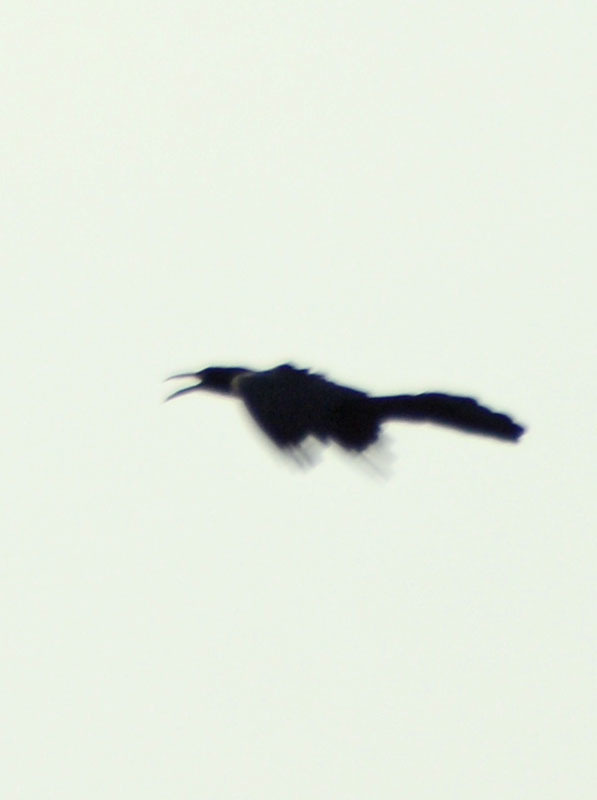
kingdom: Animalia
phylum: Chordata
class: Aves
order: Passeriformes
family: Icteridae
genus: Quiscalus
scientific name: Quiscalus mexicanus
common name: Great-tailed grackle
